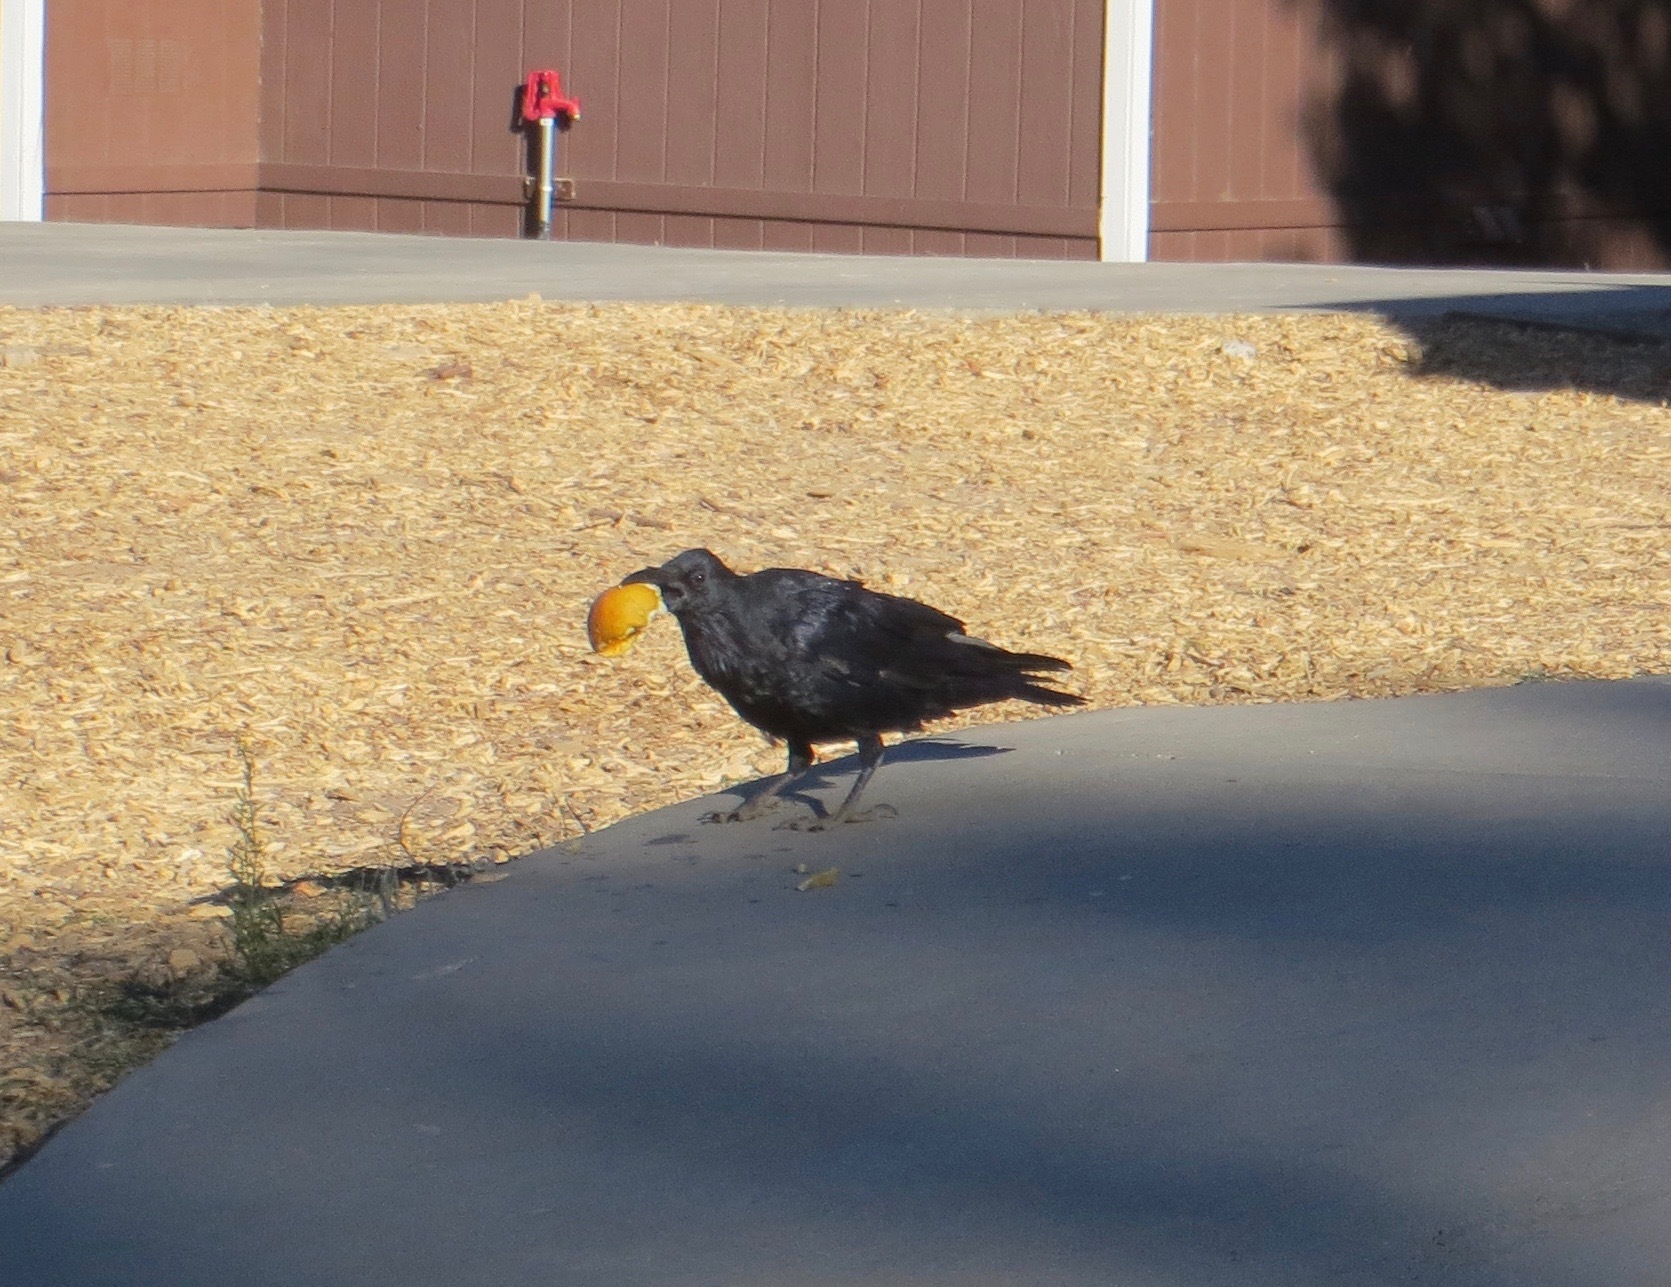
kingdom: Animalia
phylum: Chordata
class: Aves
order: Passeriformes
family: Corvidae
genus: Corvus
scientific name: Corvus corax
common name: Common raven
